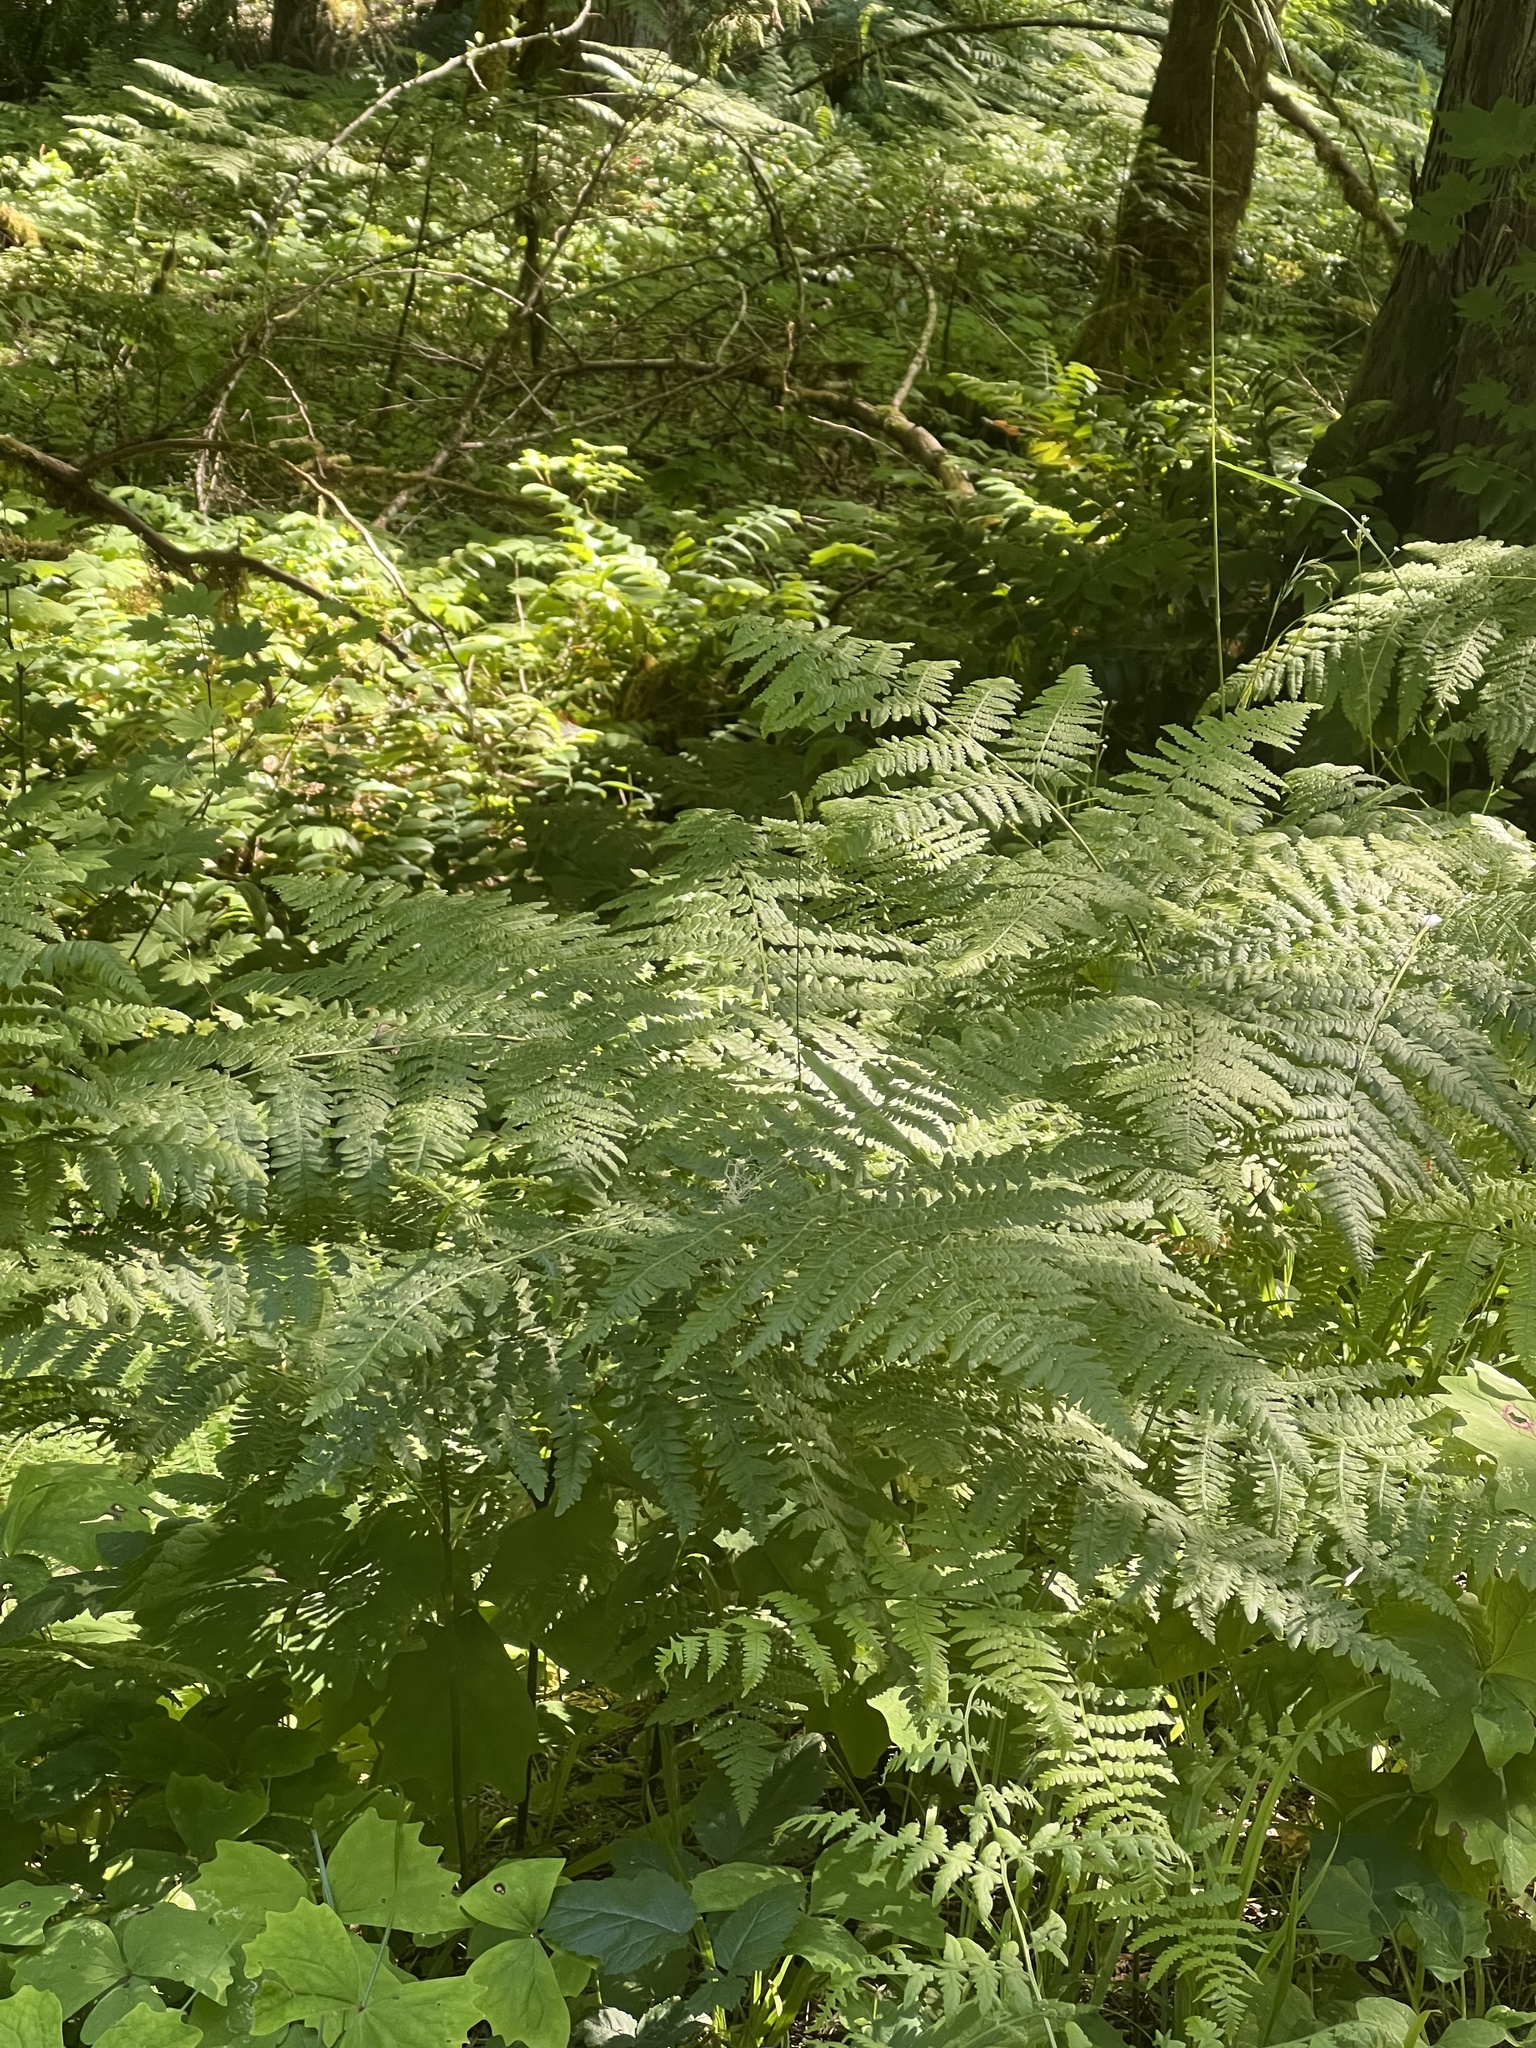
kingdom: Plantae
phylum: Tracheophyta
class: Polypodiopsida
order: Polypodiales
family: Dennstaedtiaceae
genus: Pteridium
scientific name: Pteridium aquilinum
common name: Bracken
